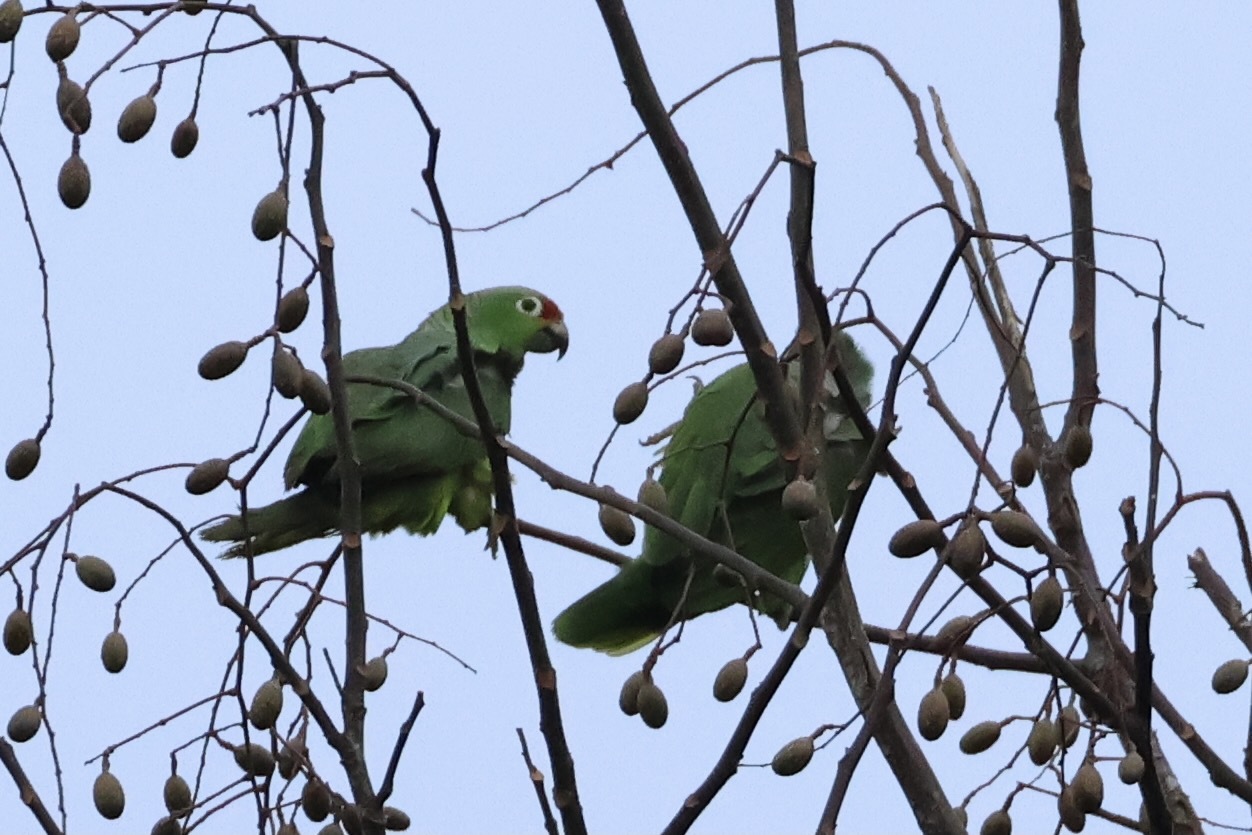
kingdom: Animalia
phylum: Chordata
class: Aves
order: Psittaciformes
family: Psittacidae
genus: Amazona
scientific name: Amazona autumnalis
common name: Red-lored amazon
